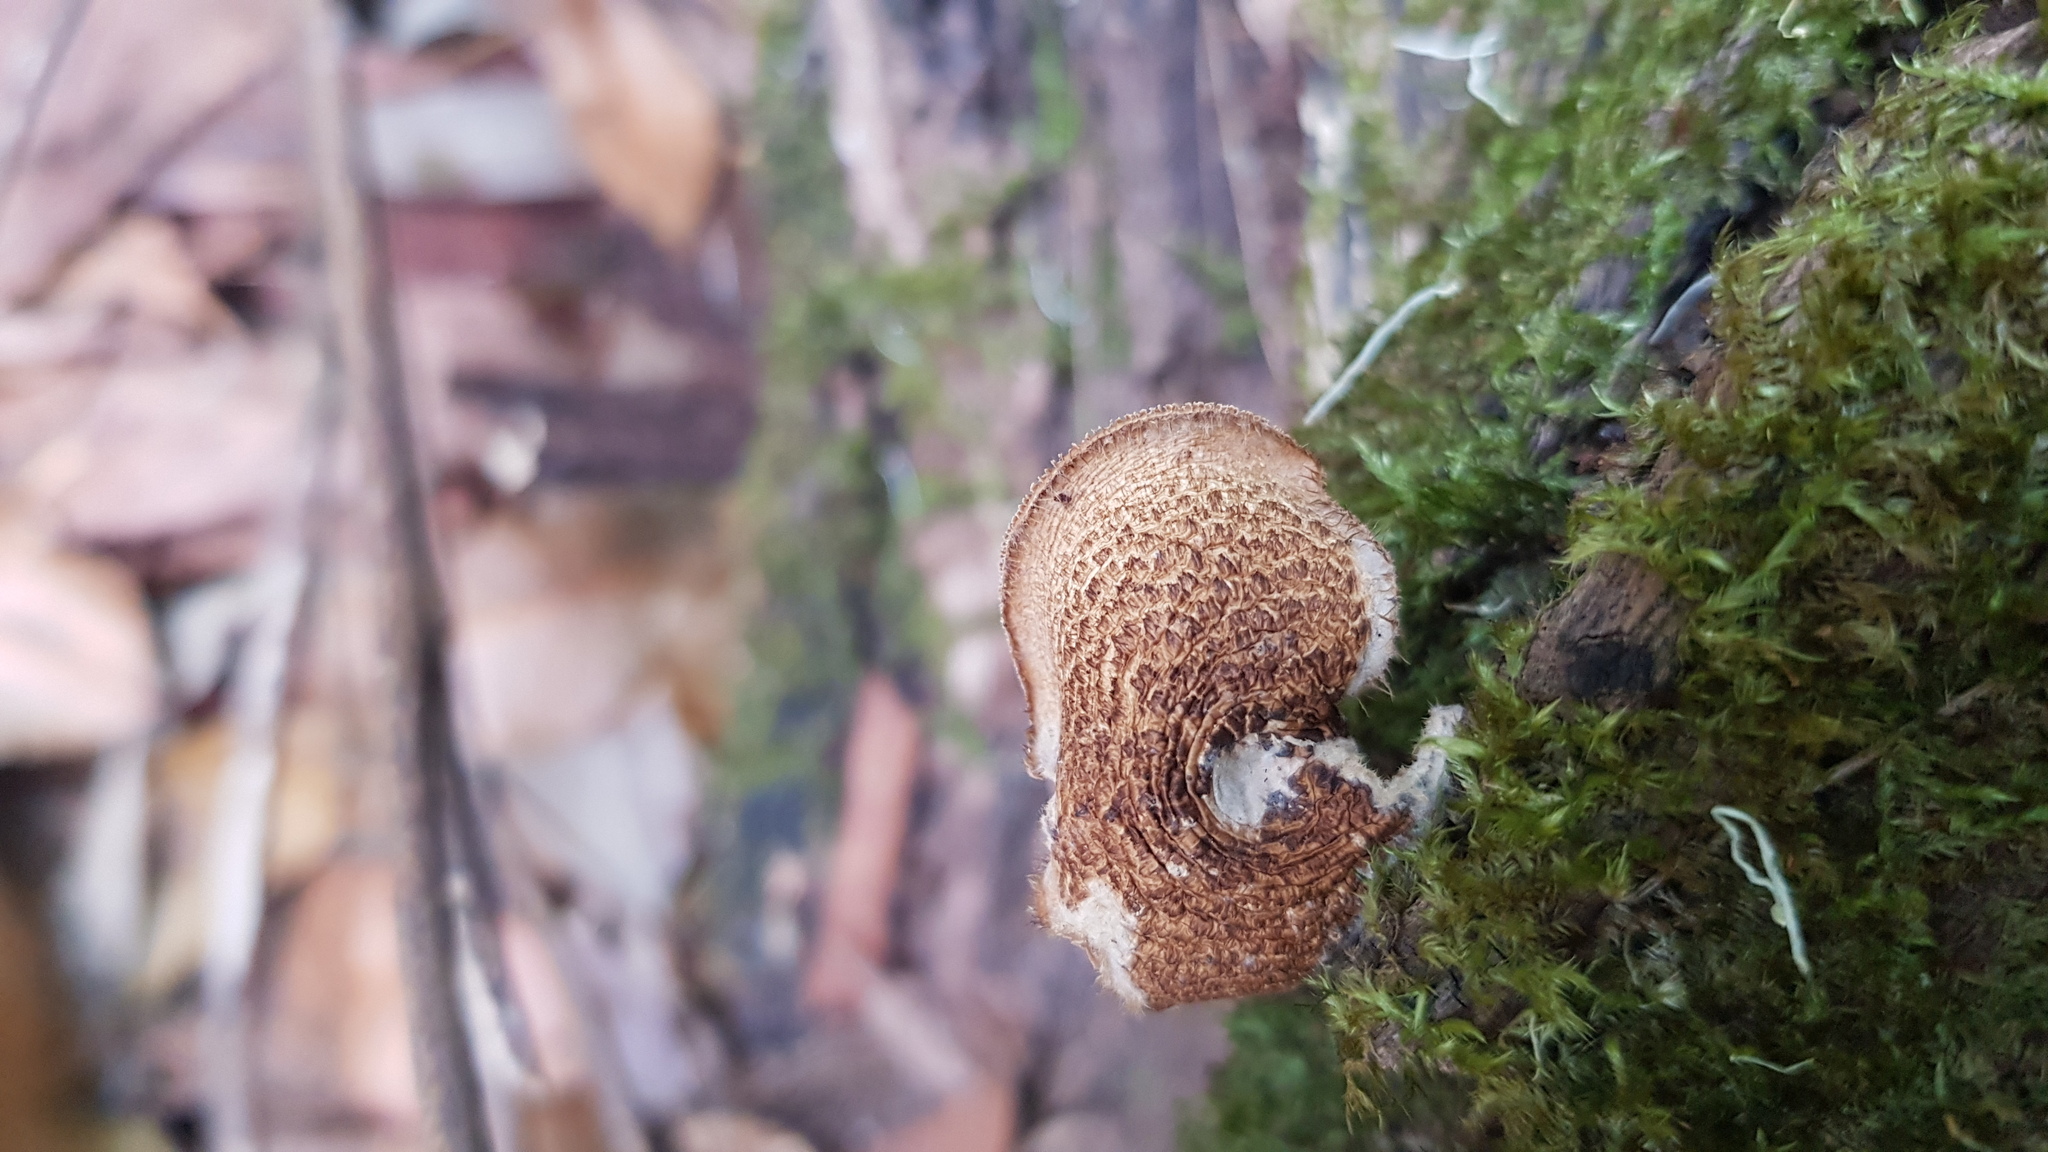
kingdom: Fungi
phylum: Basidiomycota
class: Agaricomycetes
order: Polyporales
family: Polyporaceae
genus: Lentinus
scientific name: Lentinus arcularius
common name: Spring polypore
